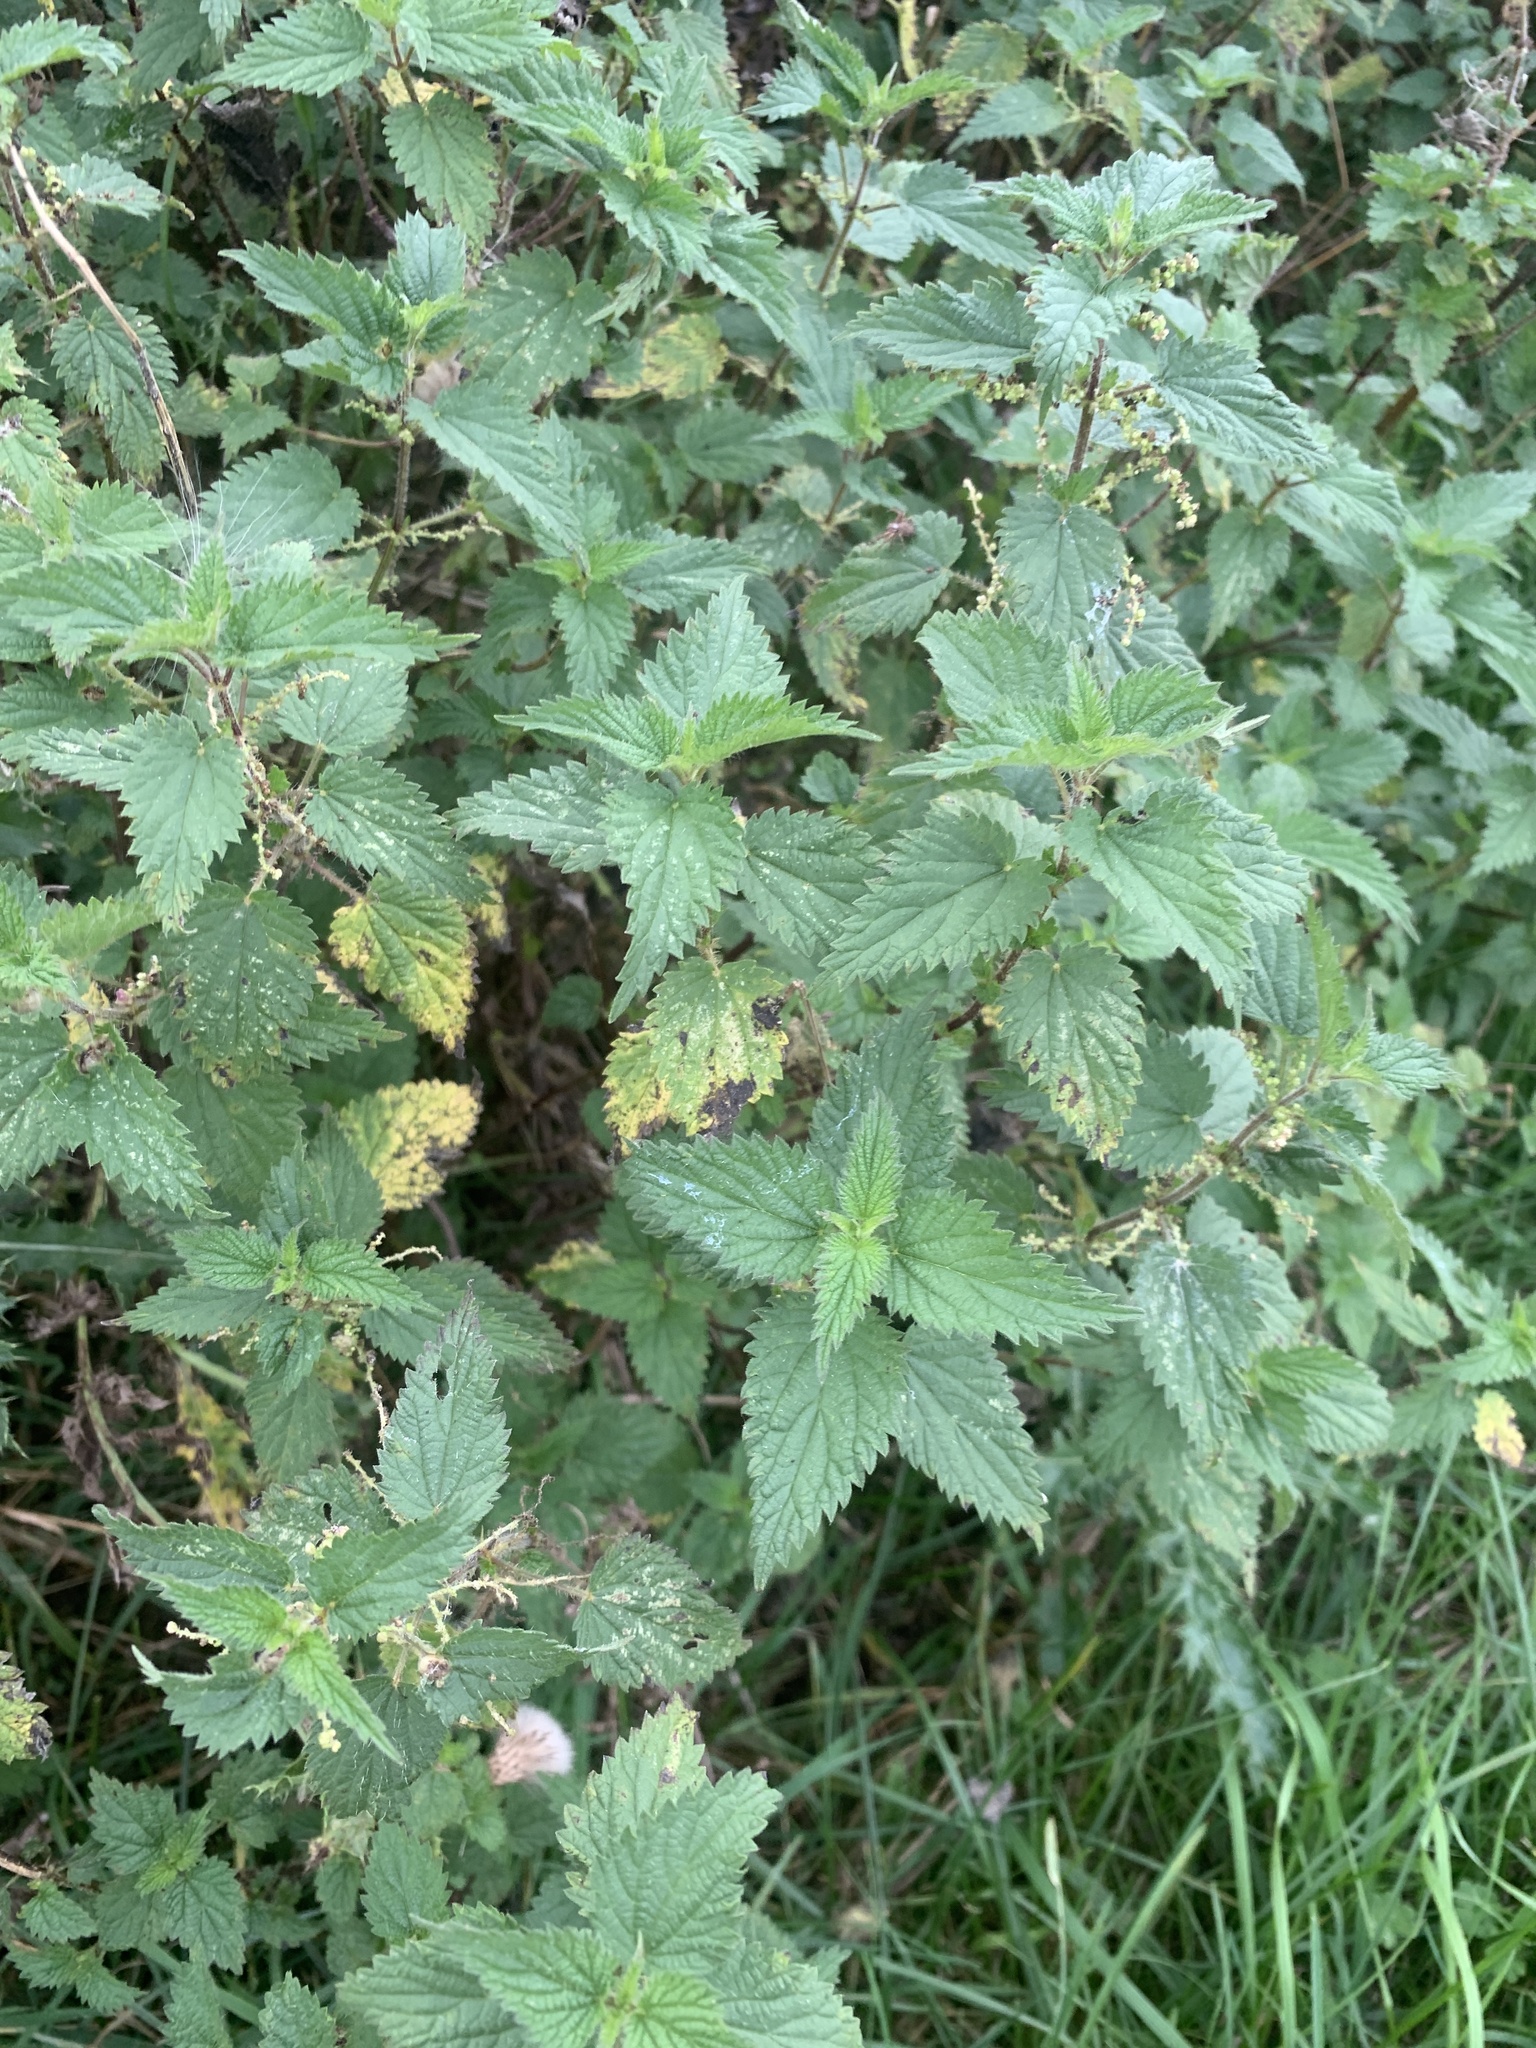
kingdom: Plantae
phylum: Tracheophyta
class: Magnoliopsida
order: Rosales
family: Urticaceae
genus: Urtica
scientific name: Urtica dioica
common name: Common nettle
